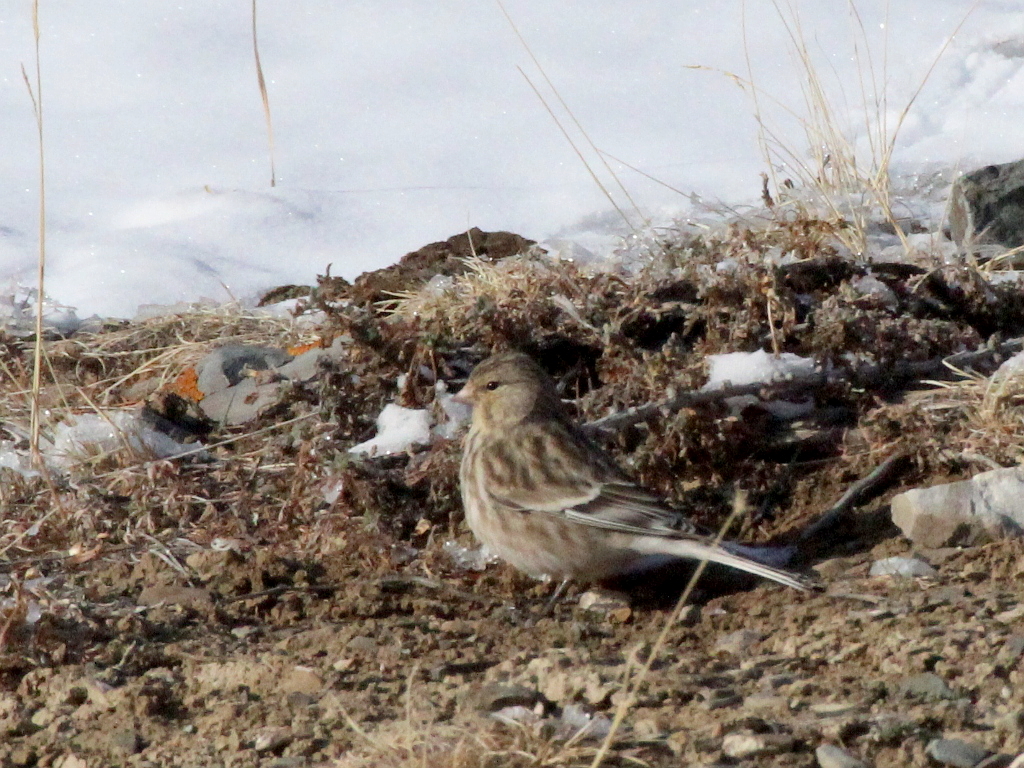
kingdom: Animalia
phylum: Chordata
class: Aves
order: Passeriformes
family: Fringillidae
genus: Linaria
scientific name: Linaria flavirostris
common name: Twite
